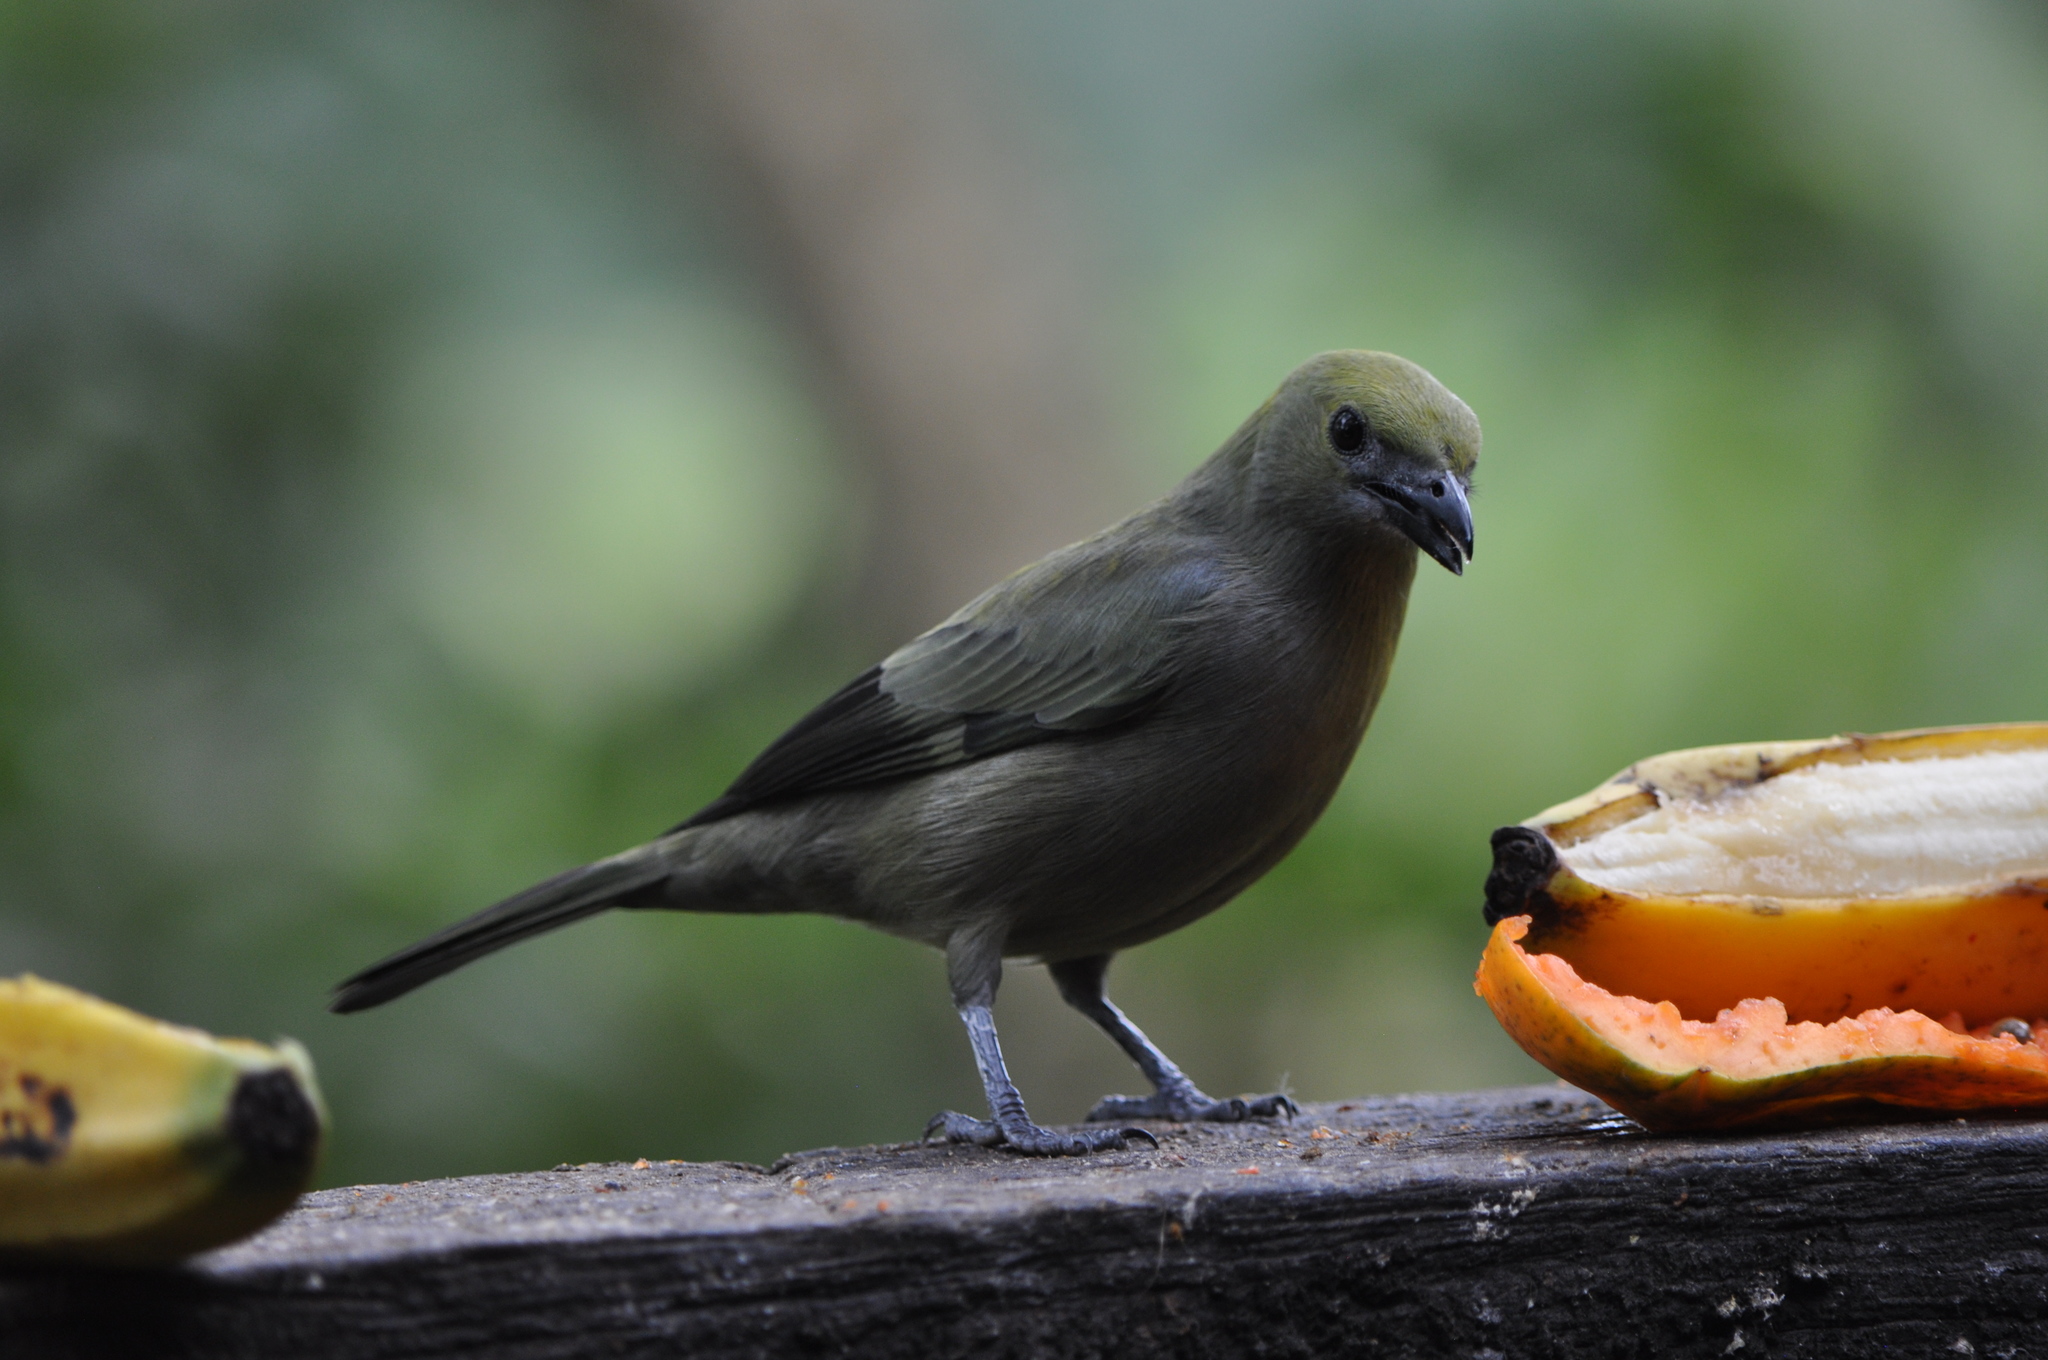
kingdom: Animalia
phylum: Chordata
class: Aves
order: Passeriformes
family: Thraupidae
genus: Thraupis
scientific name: Thraupis palmarum
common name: Palm tanager
